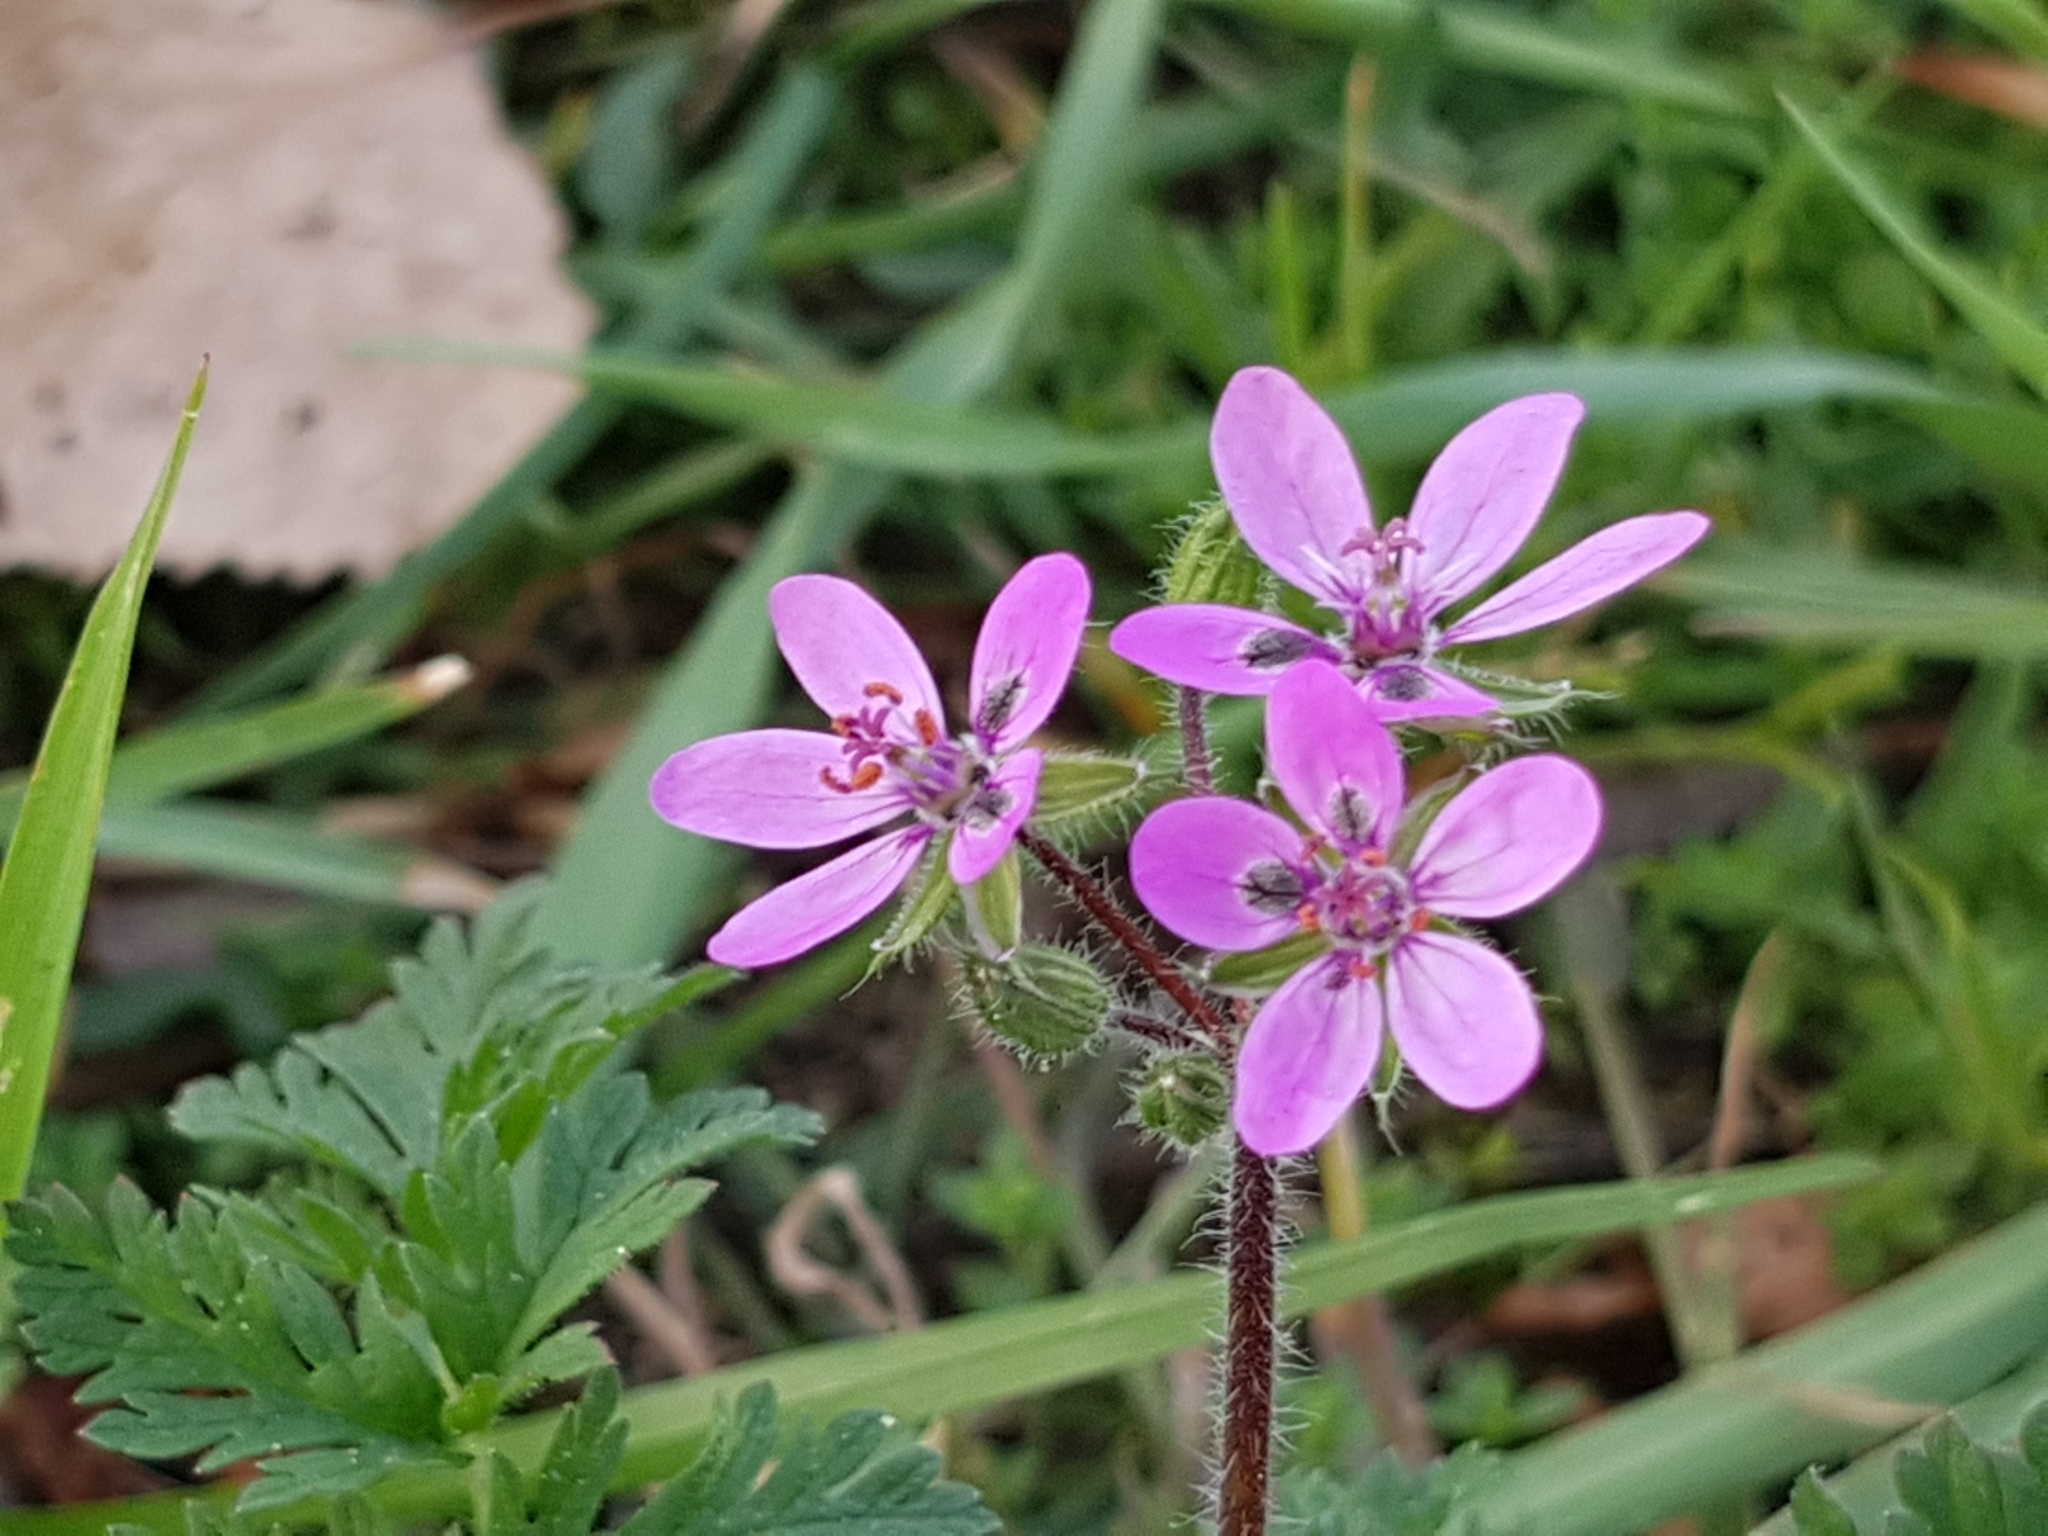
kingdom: Plantae
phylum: Tracheophyta
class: Magnoliopsida
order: Geraniales
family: Geraniaceae
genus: Erodium
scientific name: Erodium cicutarium
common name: Common stork's-bill
